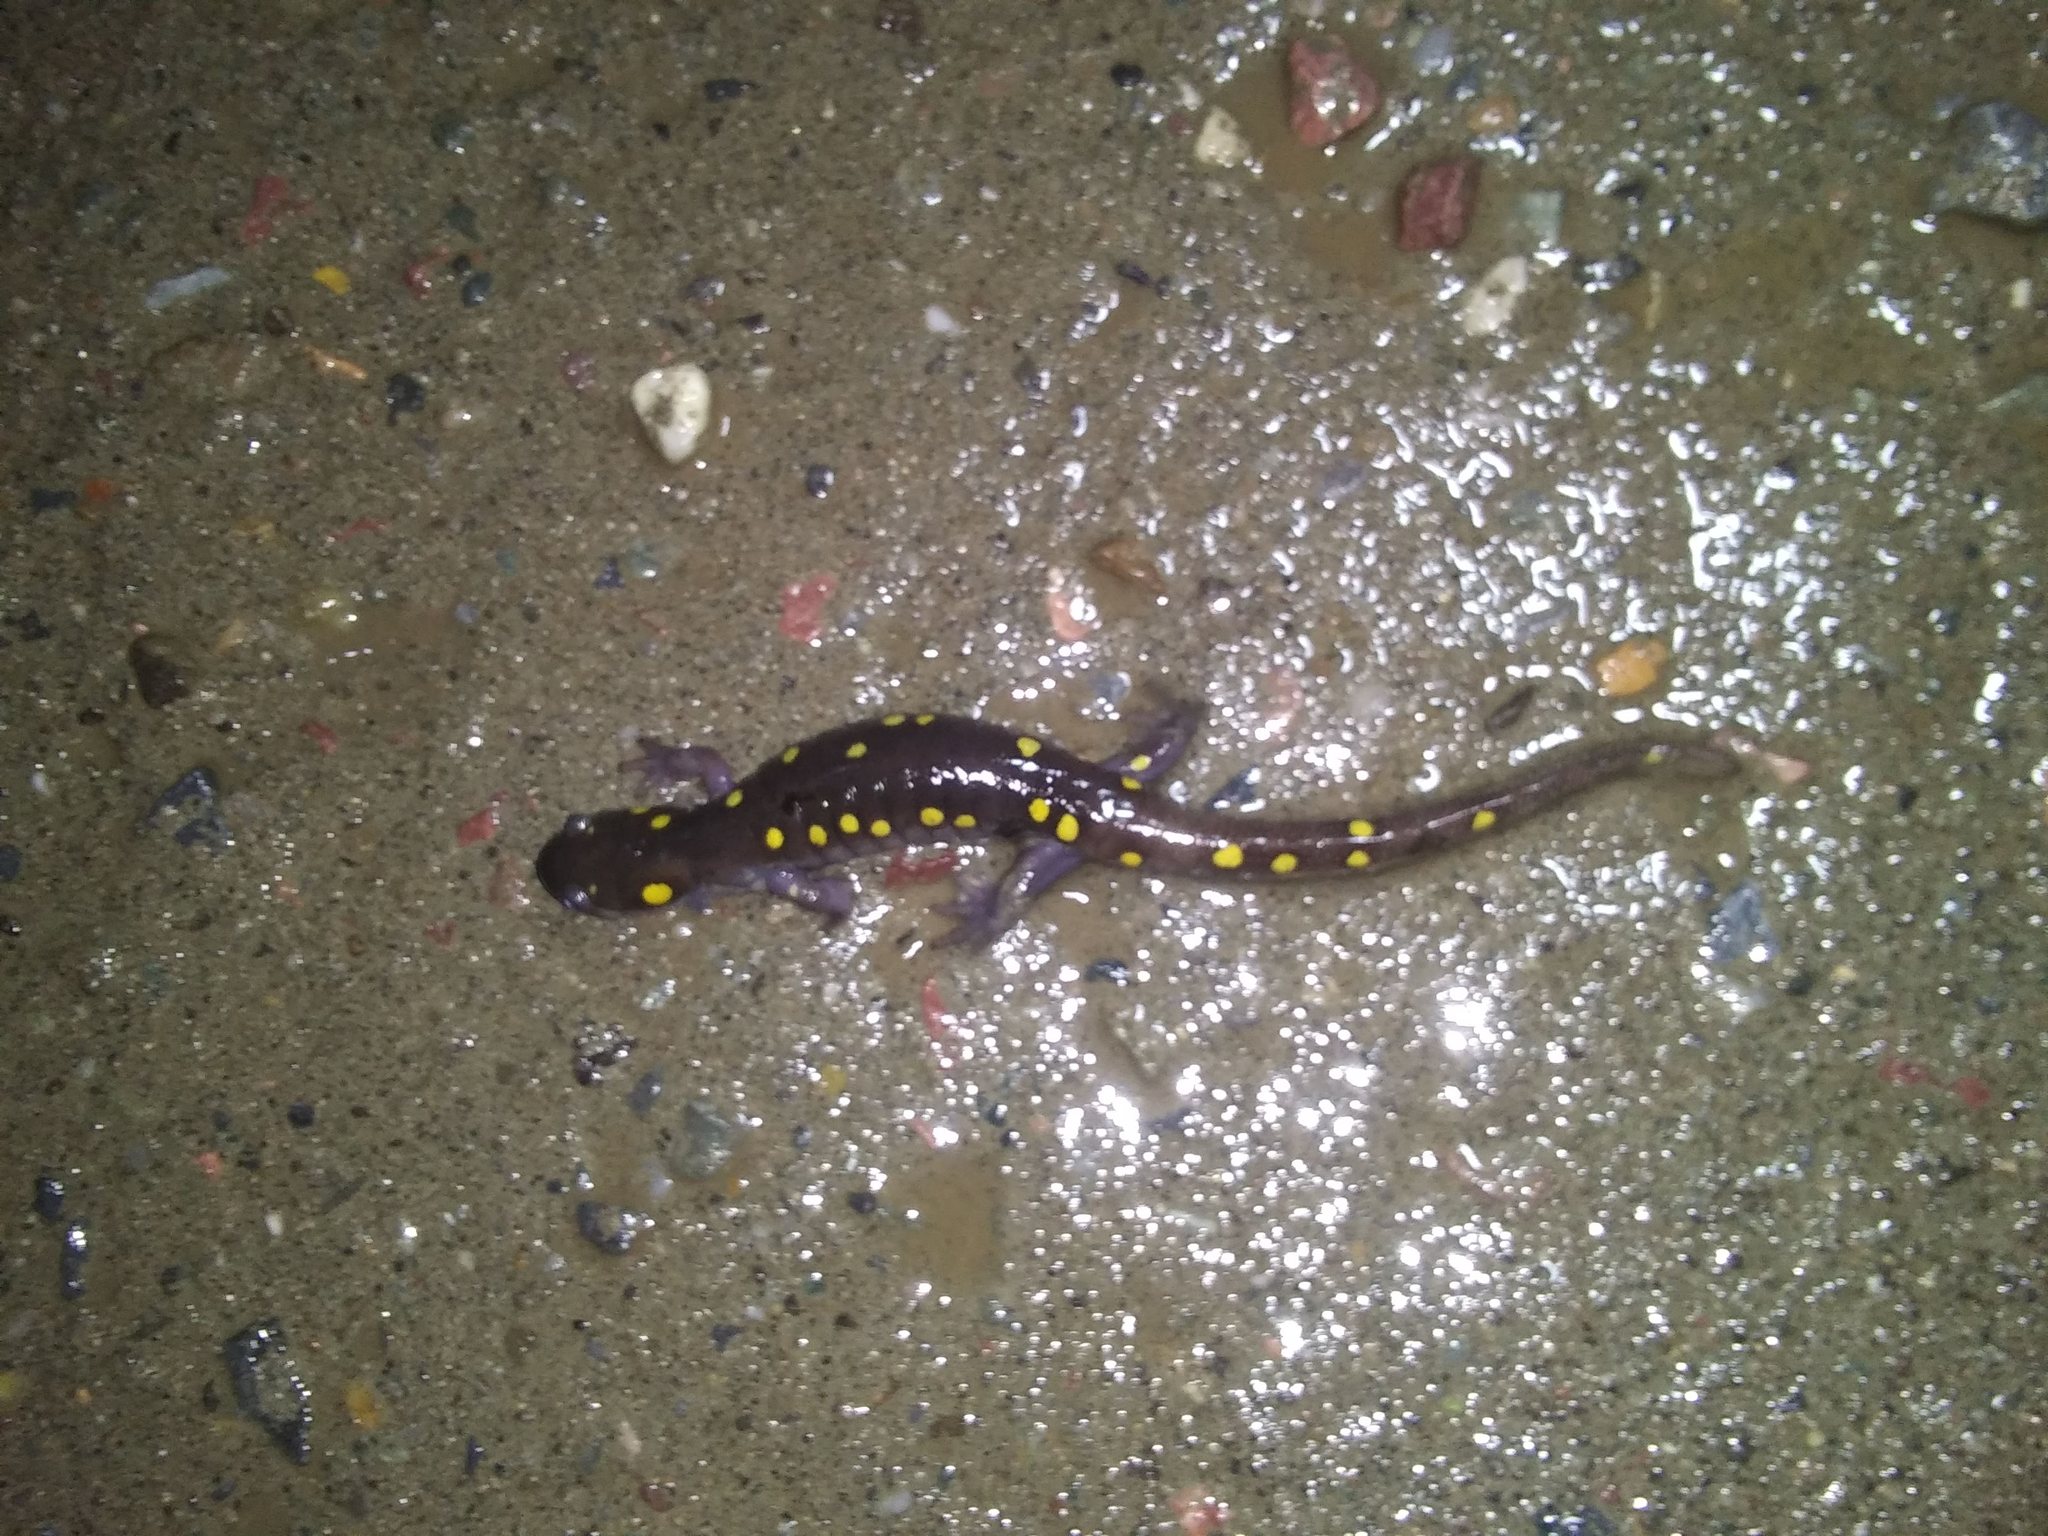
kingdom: Animalia
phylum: Chordata
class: Amphibia
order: Caudata
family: Ambystomatidae
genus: Ambystoma
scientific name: Ambystoma maculatum
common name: Spotted salamander
